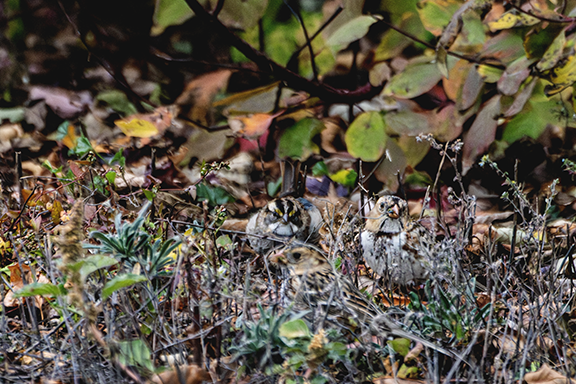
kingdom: Animalia
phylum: Chordata
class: Aves
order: Passeriformes
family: Passerellidae
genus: Zonotrichia
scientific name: Zonotrichia querula
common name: Harris's sparrow
